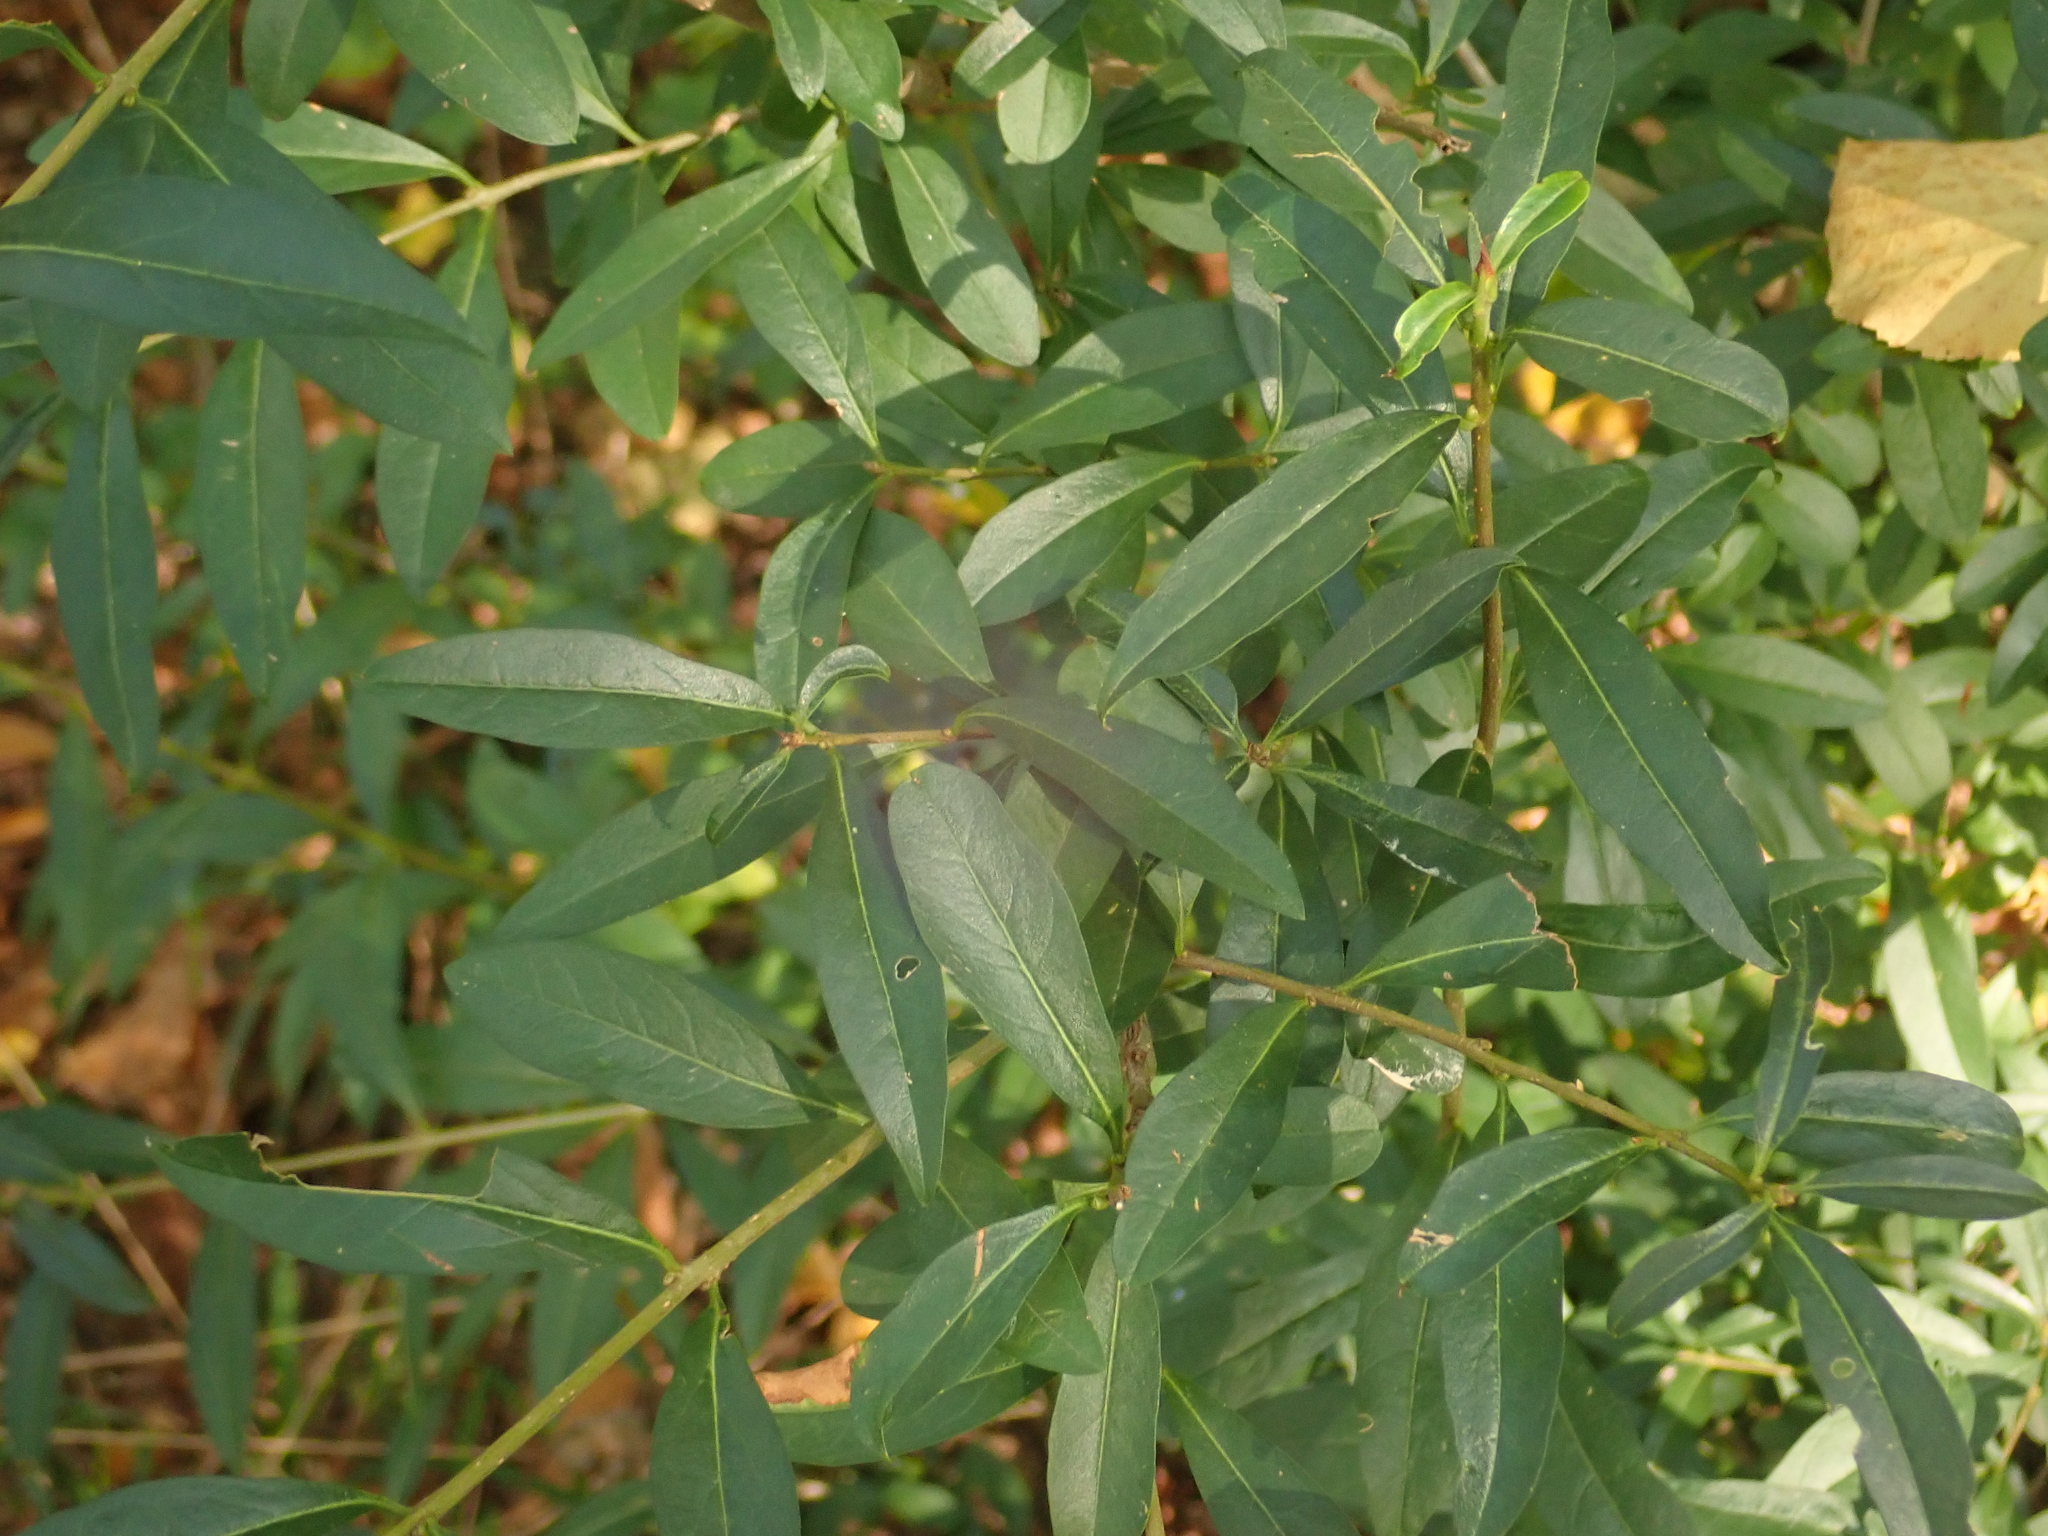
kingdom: Plantae
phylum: Tracheophyta
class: Magnoliopsida
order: Lamiales
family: Oleaceae
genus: Ligustrum
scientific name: Ligustrum vulgare
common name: Wild privet
